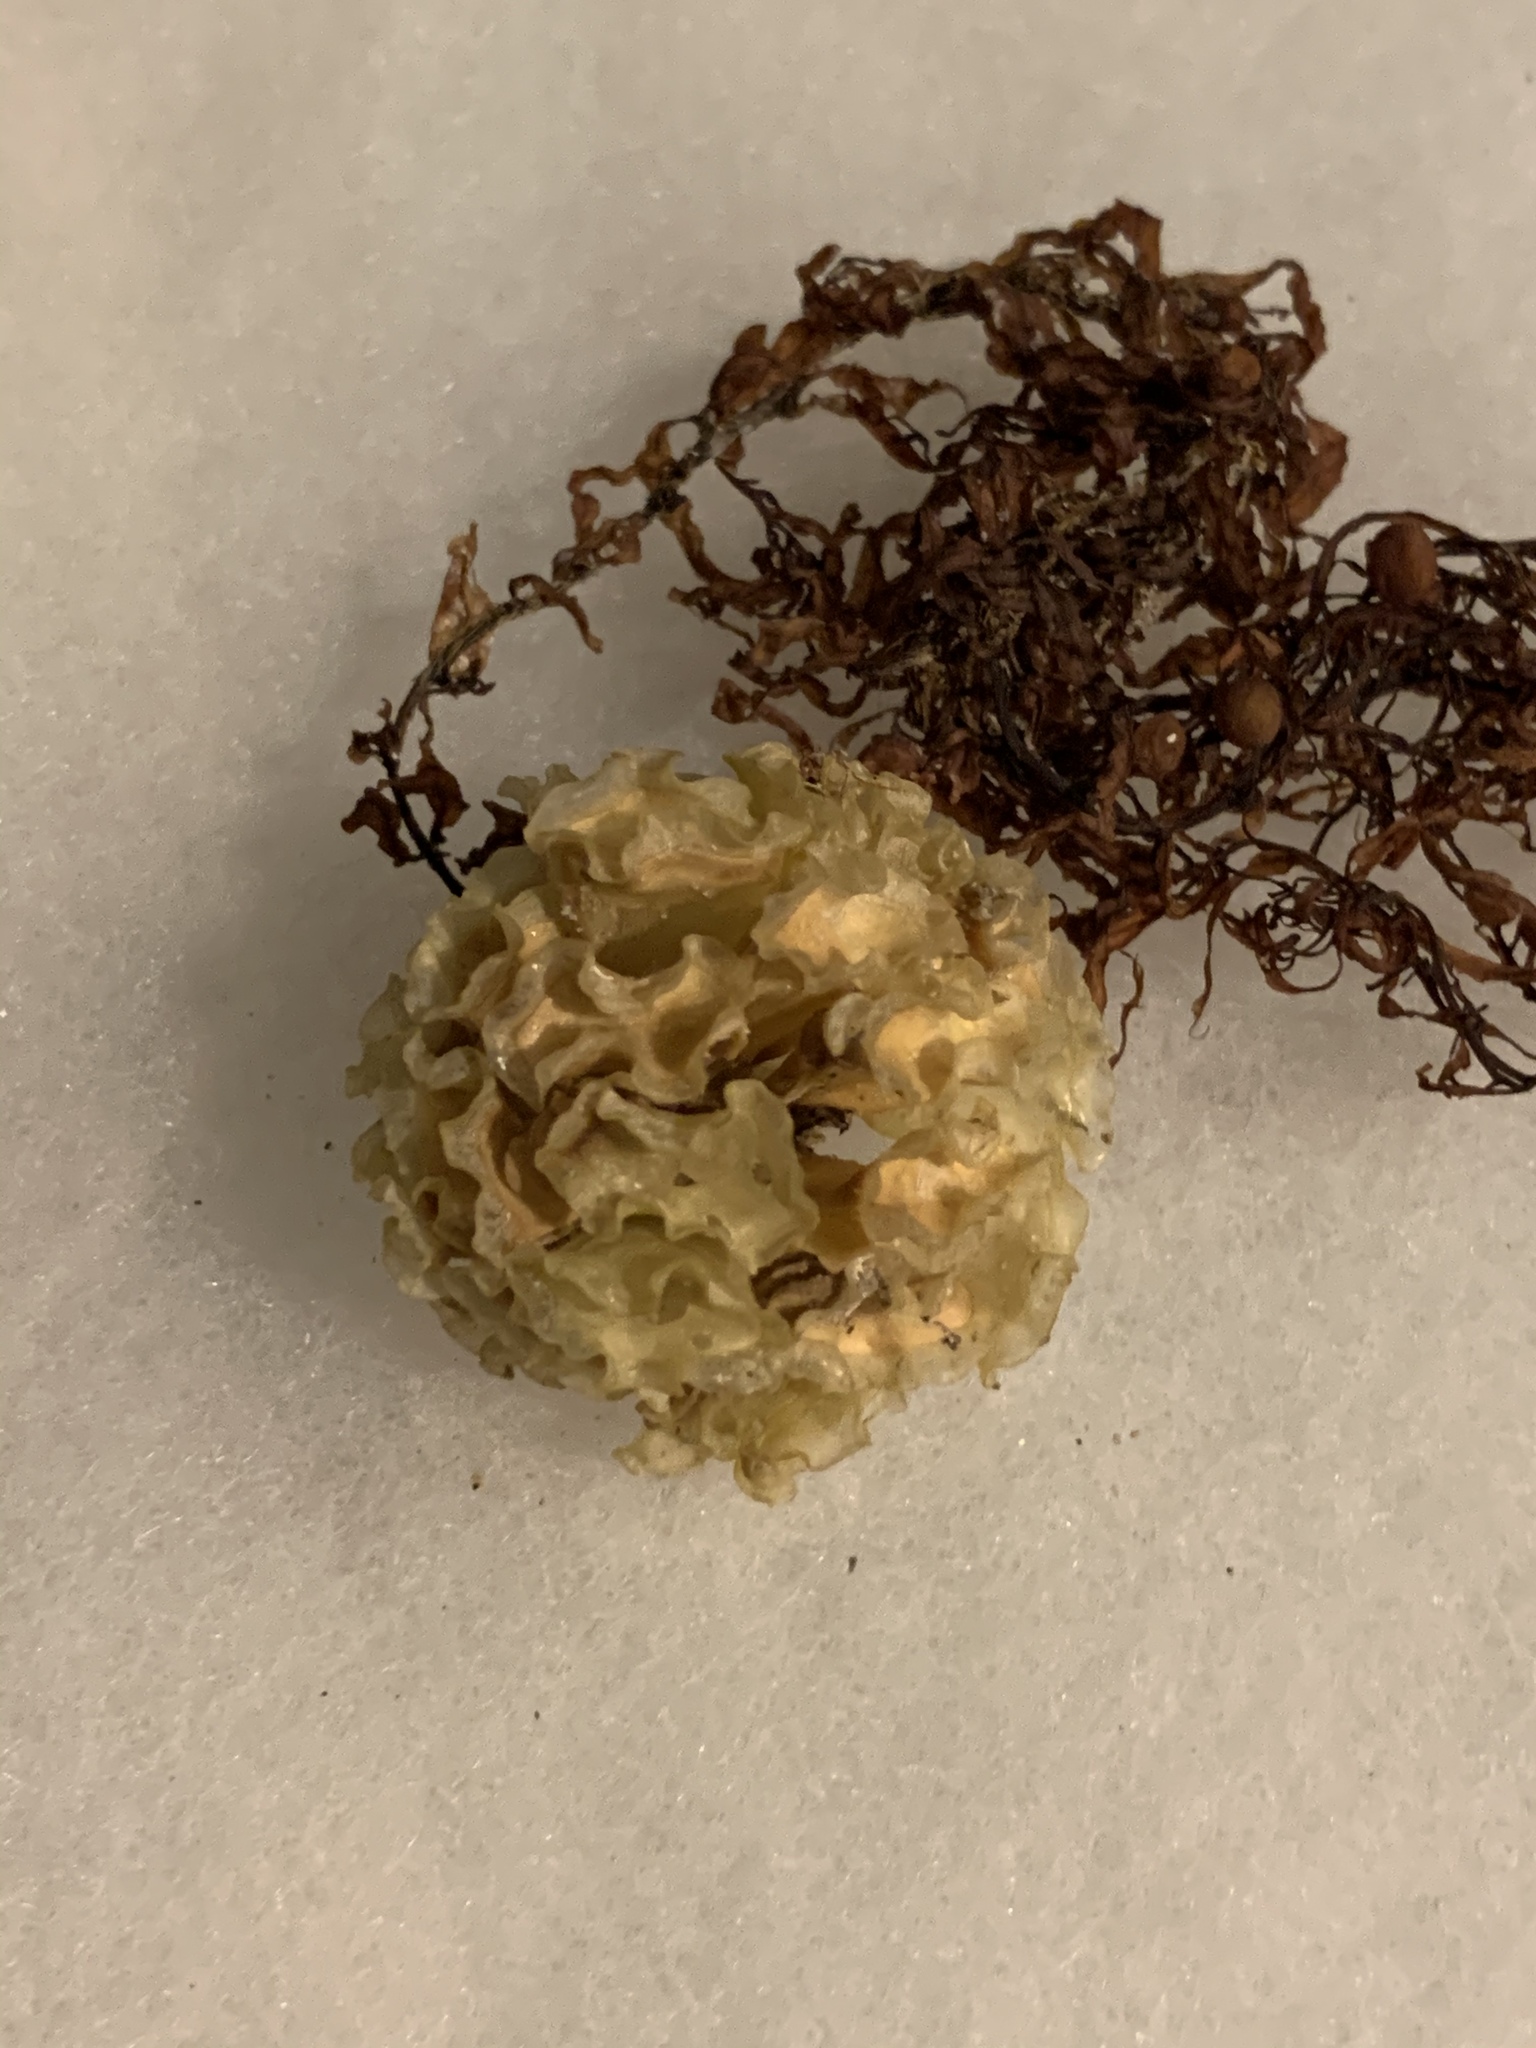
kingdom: Animalia
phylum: Mollusca
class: Gastropoda
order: Neogastropoda
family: Fasciolariidae
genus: Fasciolaria
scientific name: Fasciolaria tulipa
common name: True tulip
